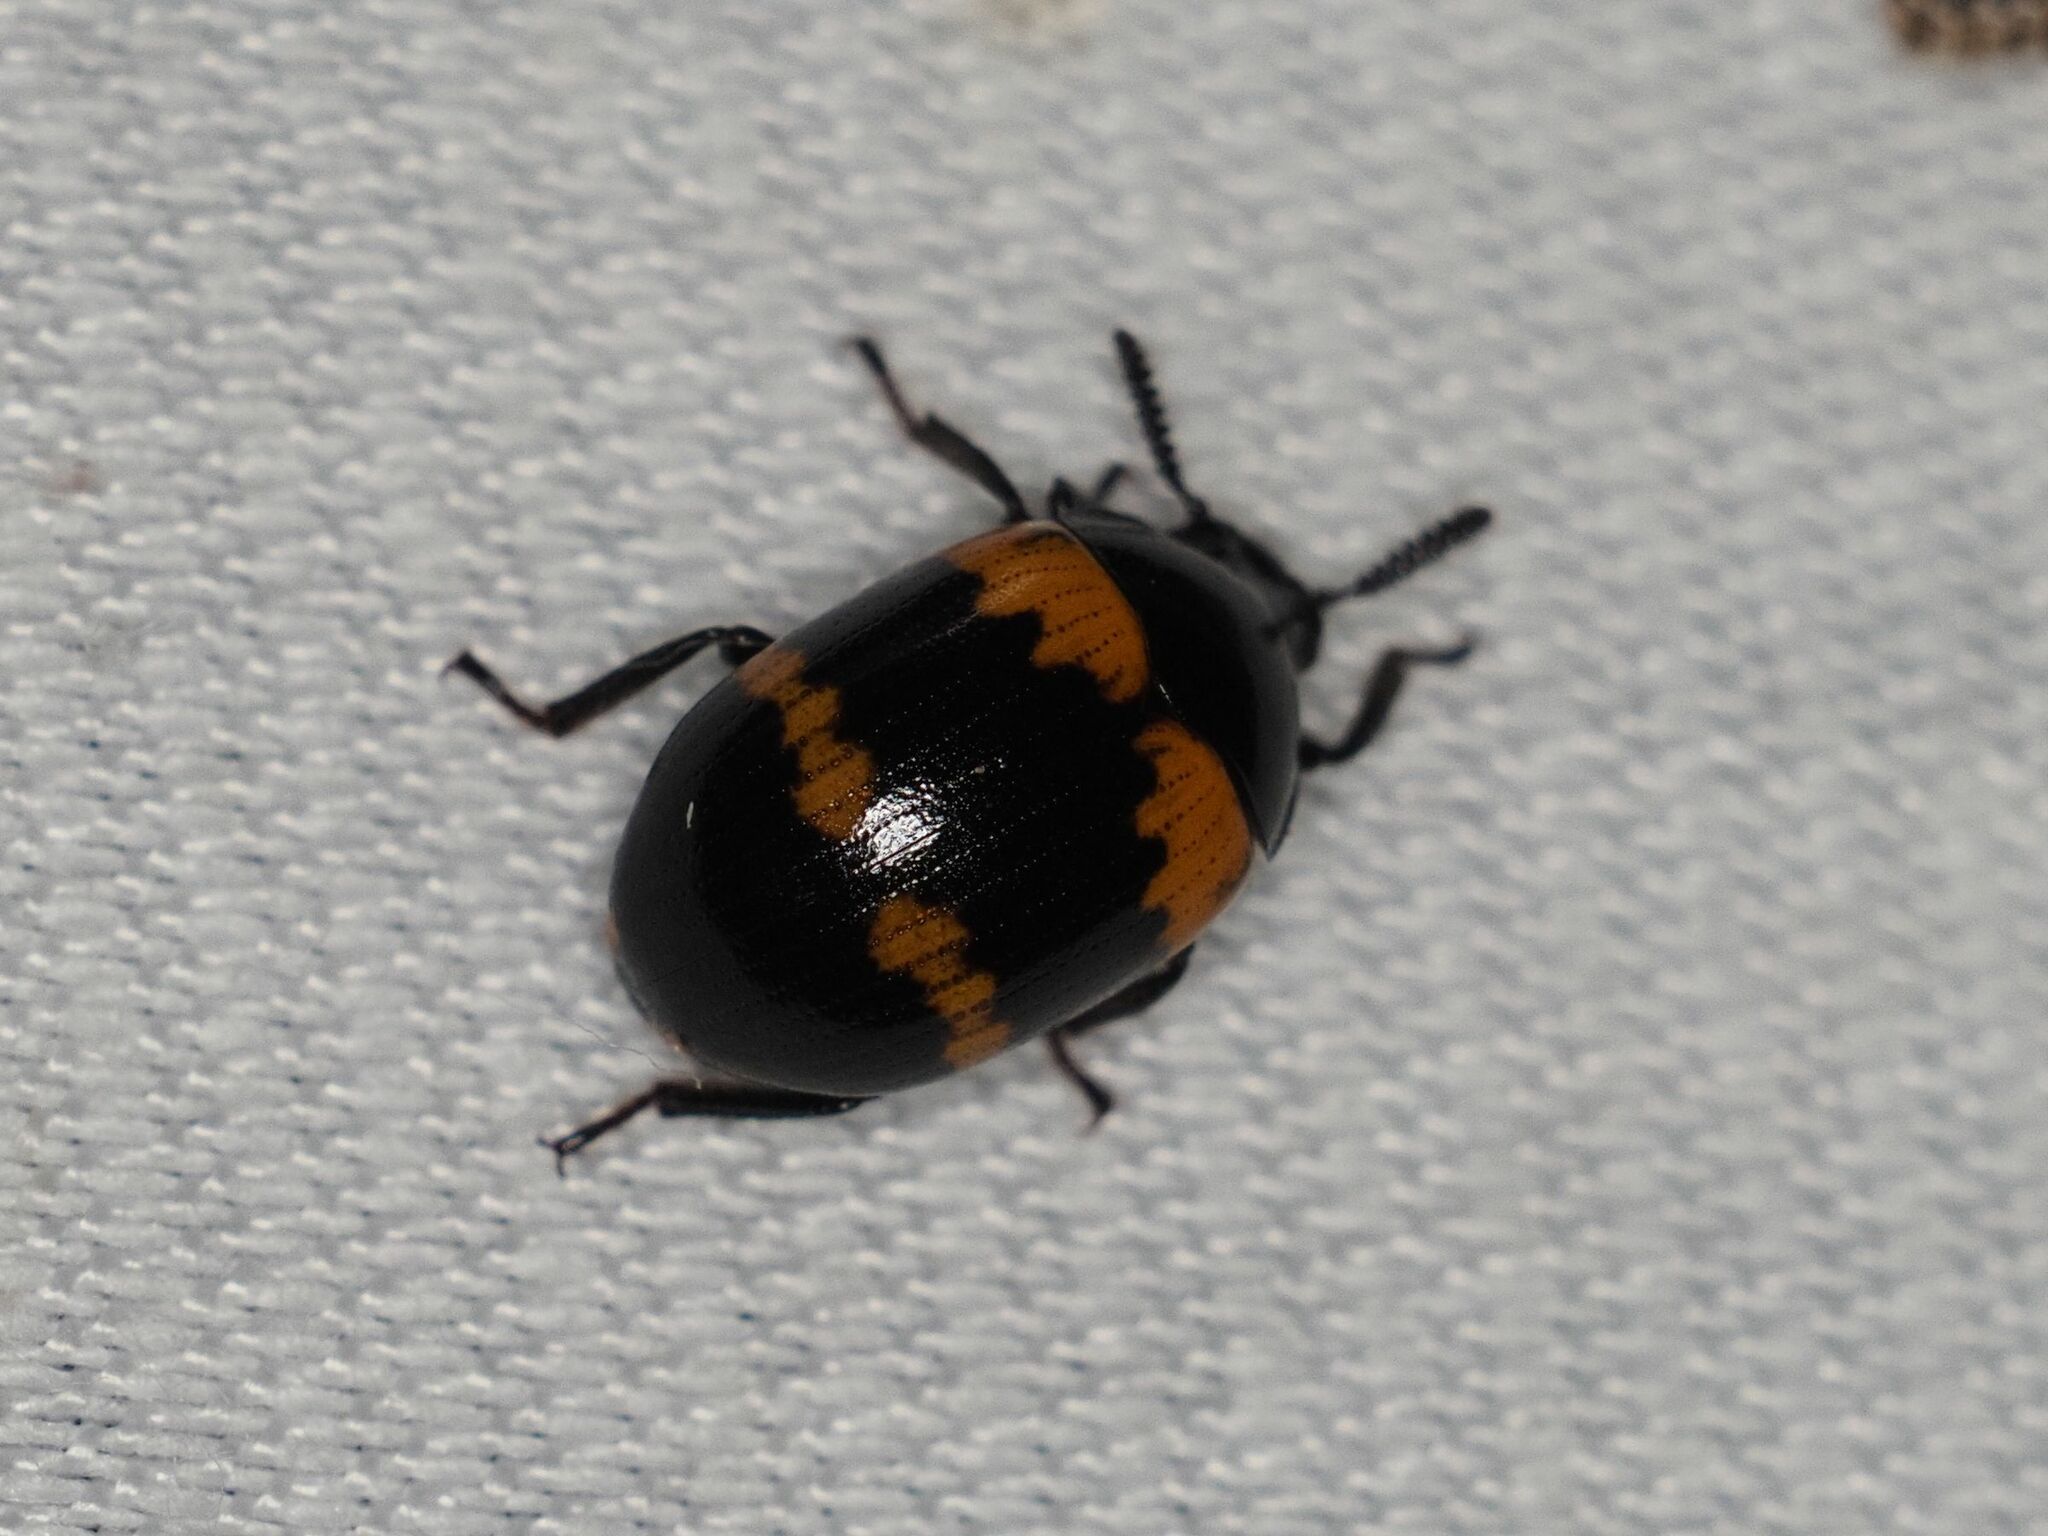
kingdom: Animalia
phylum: Arthropoda
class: Insecta
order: Coleoptera
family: Tenebrionidae
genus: Diaperis
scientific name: Diaperis boleti
